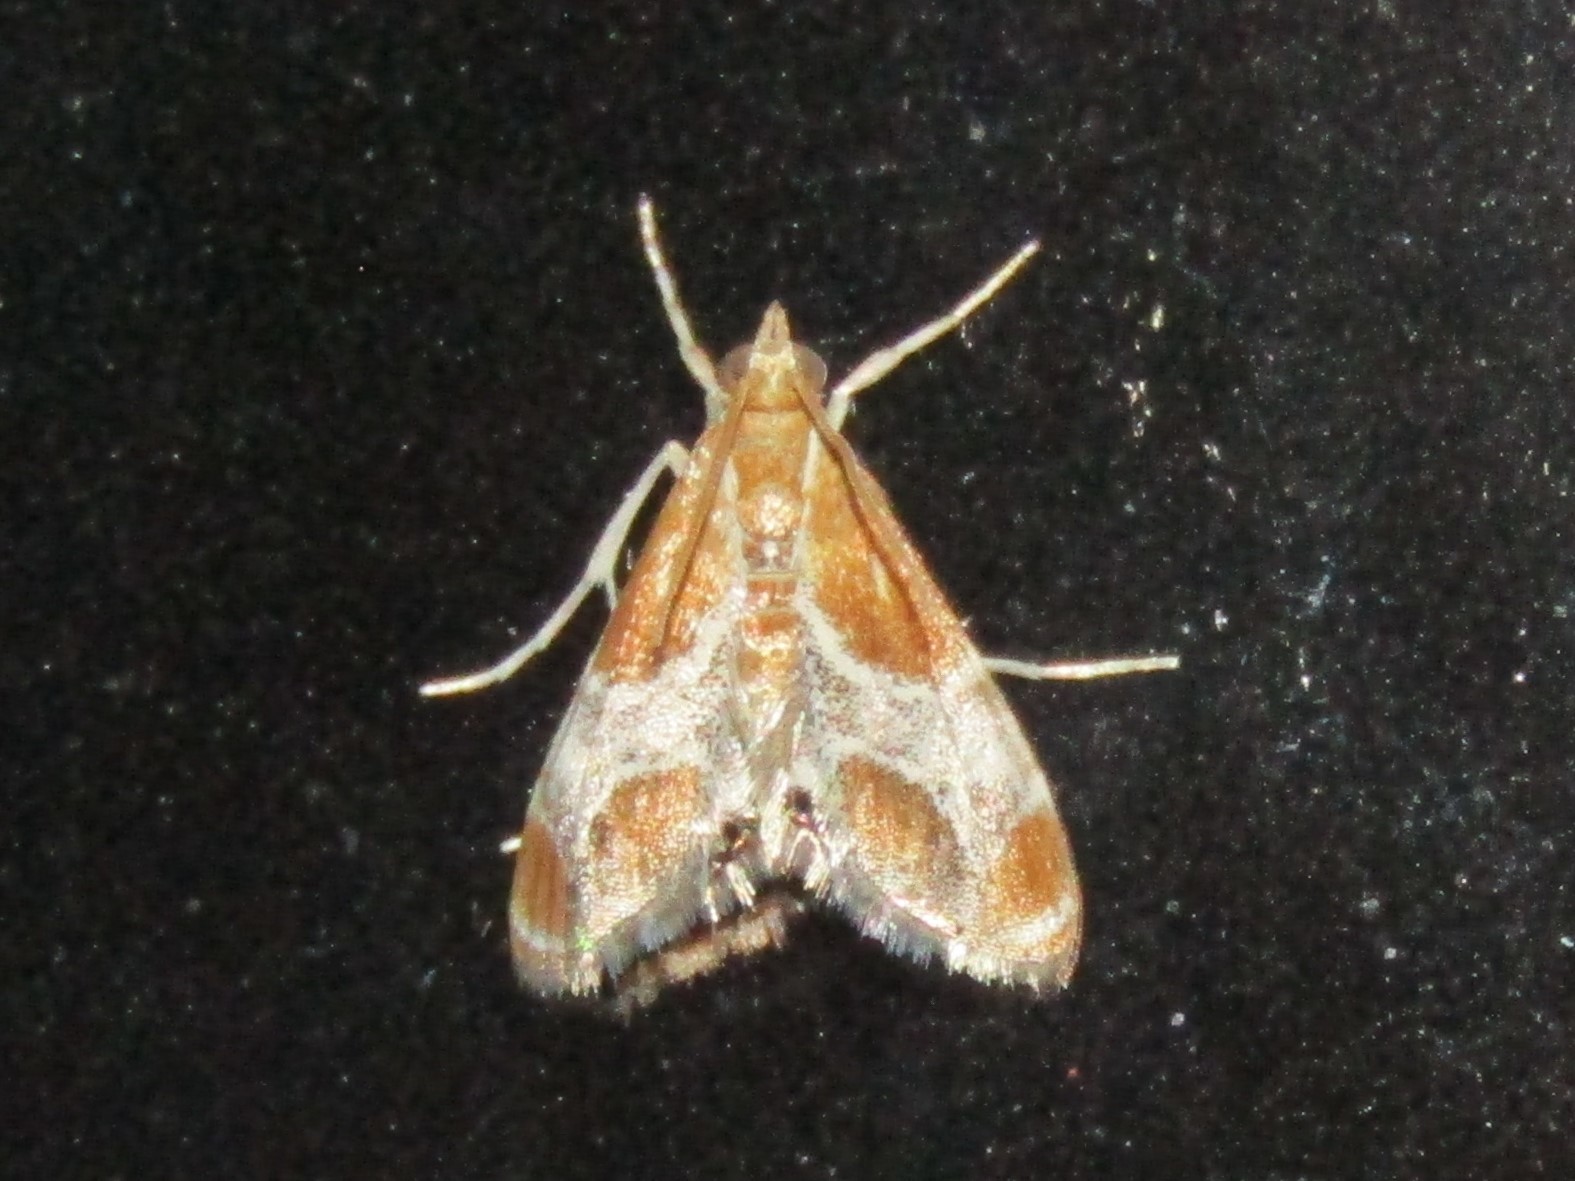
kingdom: Animalia
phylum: Arthropoda
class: Insecta
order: Lepidoptera
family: Crambidae
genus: Chalcoela
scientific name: Chalcoela pegasalis
